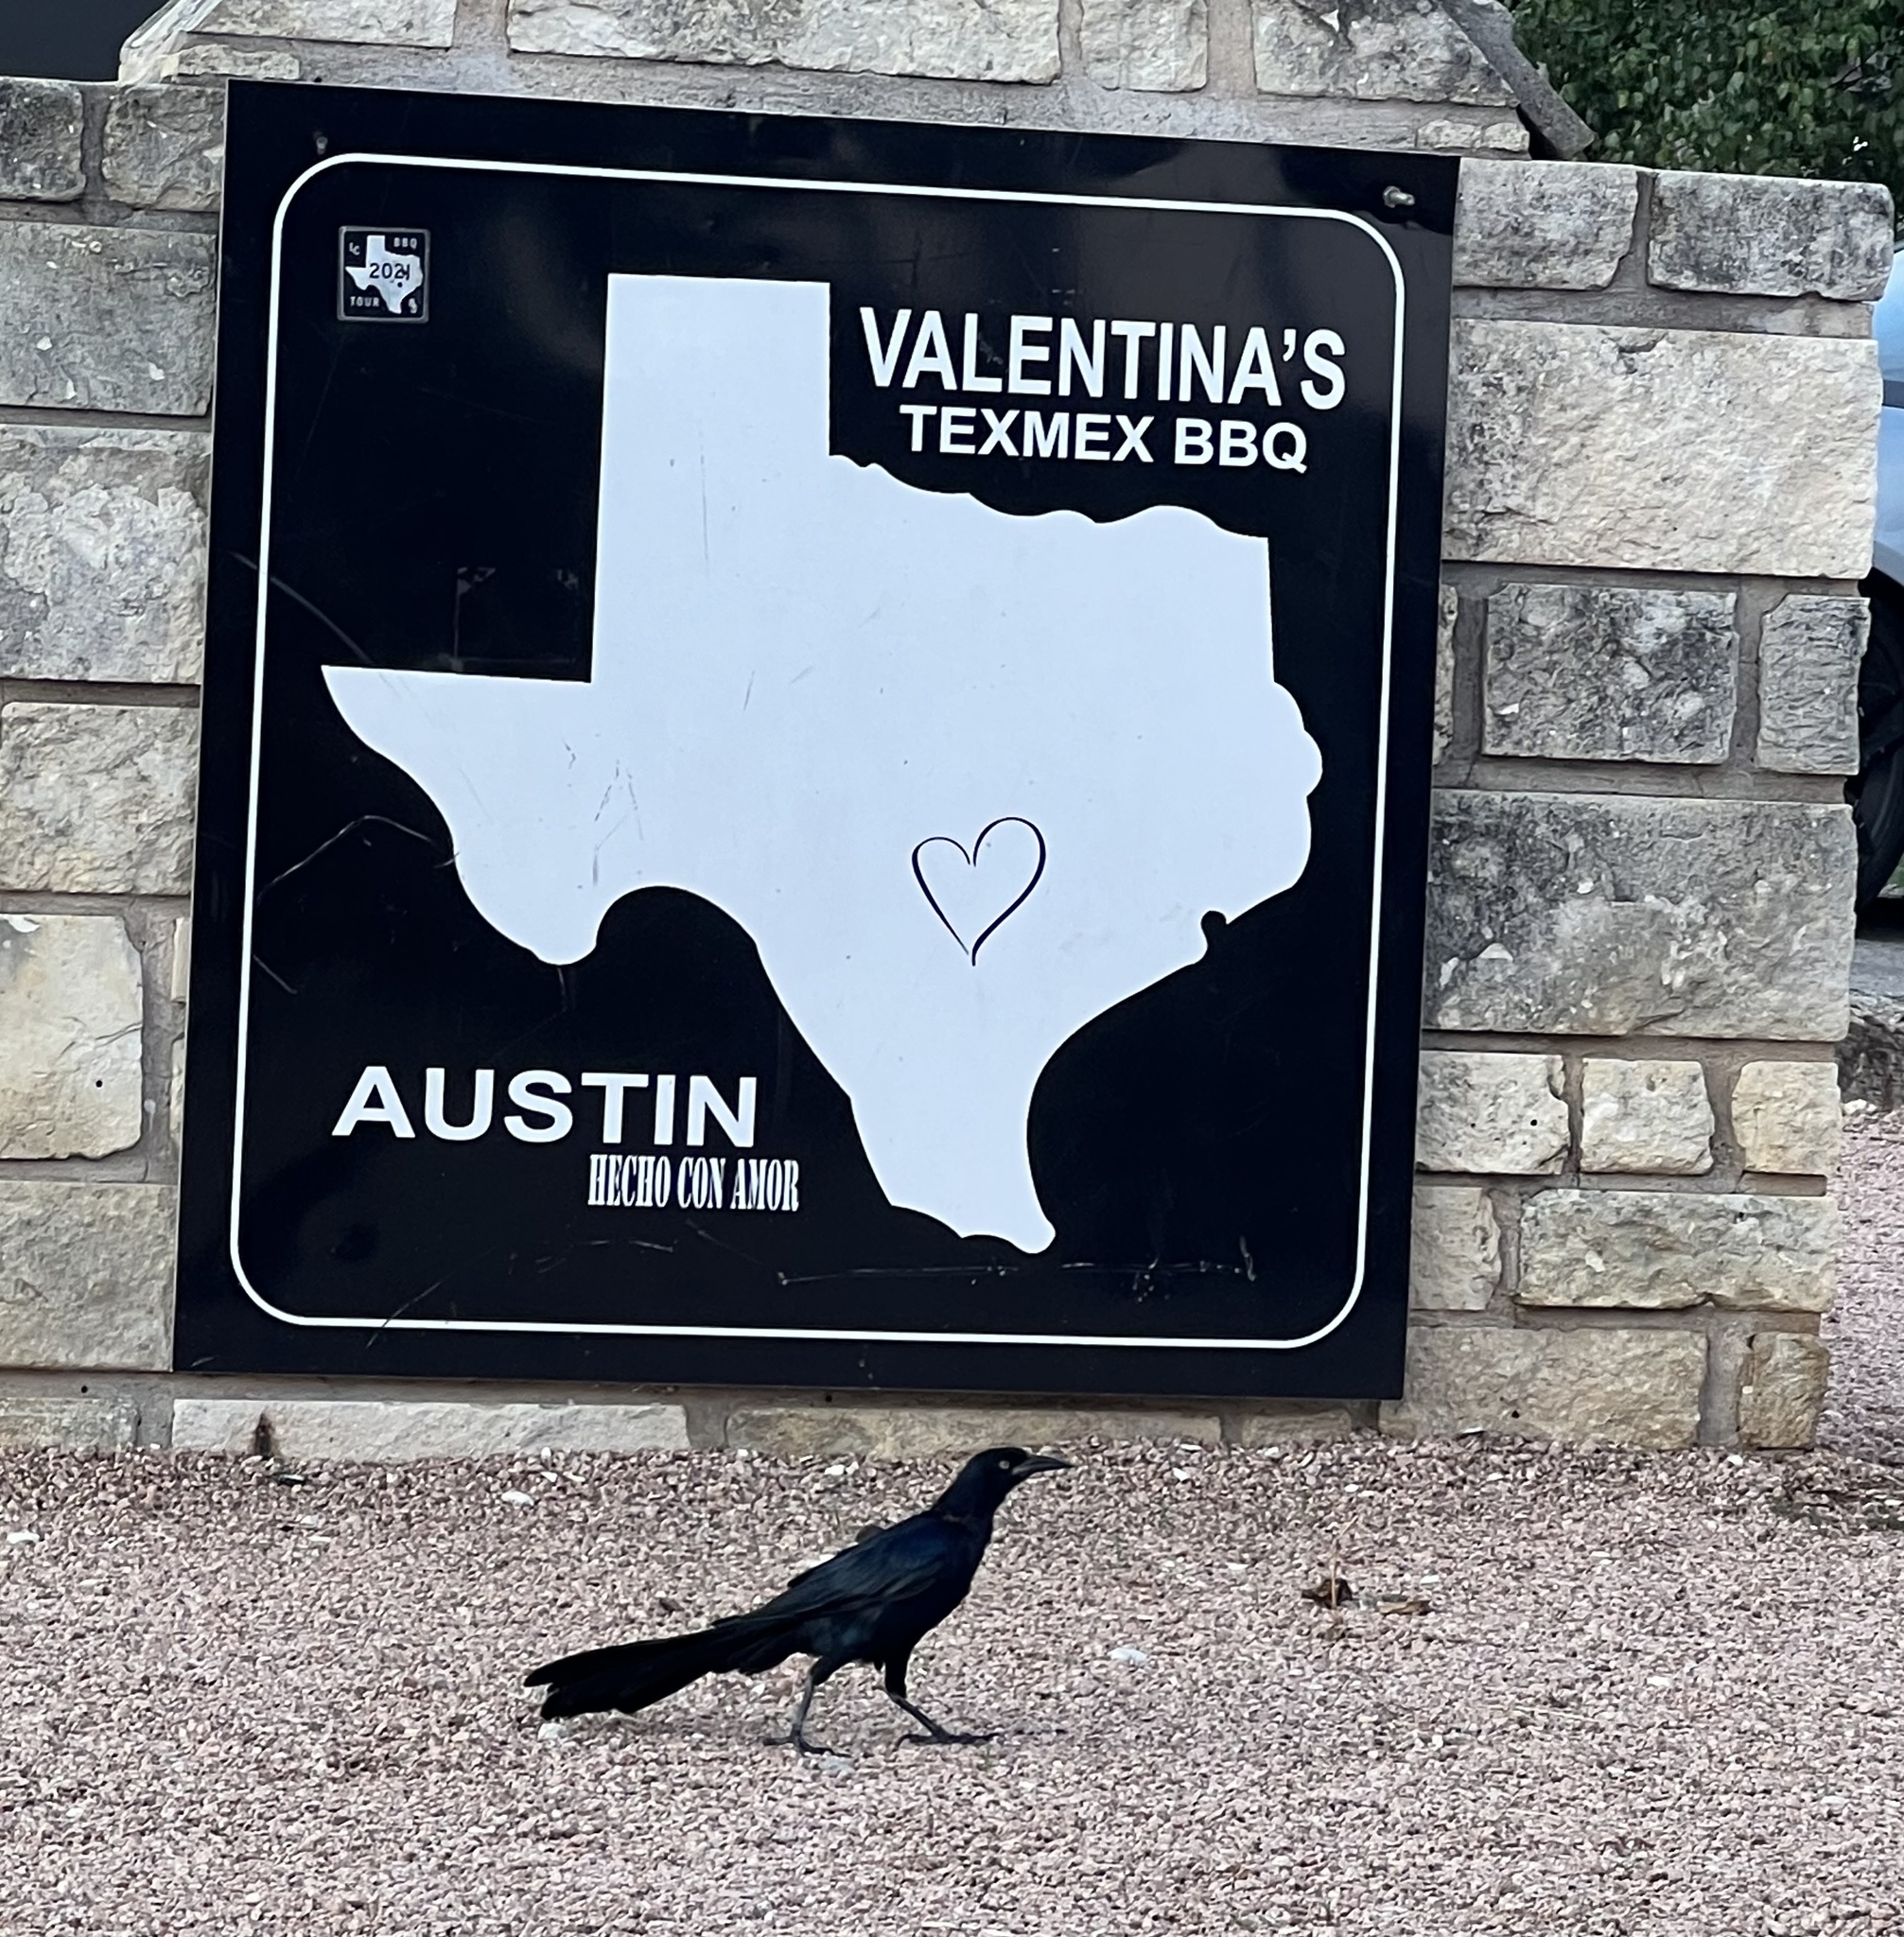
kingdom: Animalia
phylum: Chordata
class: Aves
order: Passeriformes
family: Icteridae
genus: Quiscalus
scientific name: Quiscalus mexicanus
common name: Great-tailed grackle
